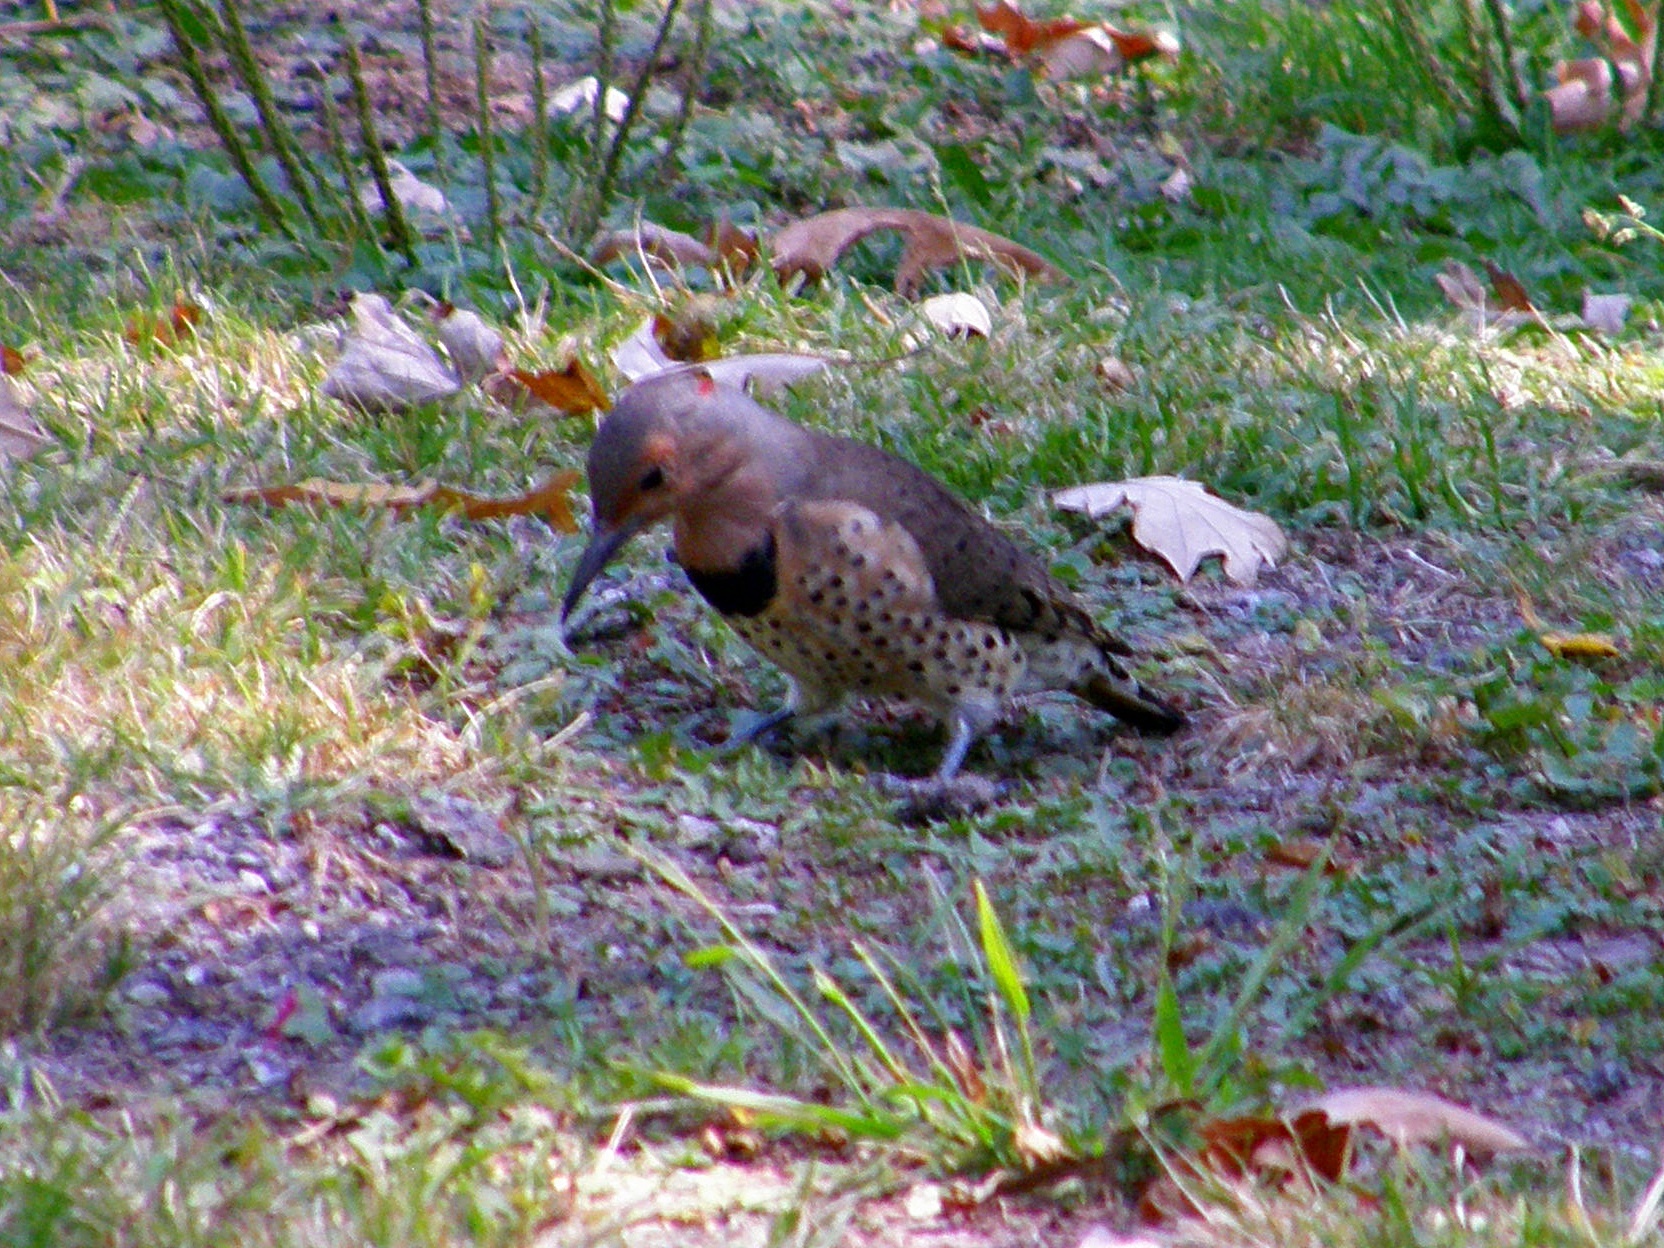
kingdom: Animalia
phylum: Chordata
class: Aves
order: Piciformes
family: Picidae
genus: Colaptes
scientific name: Colaptes auratus
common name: Northern flicker
